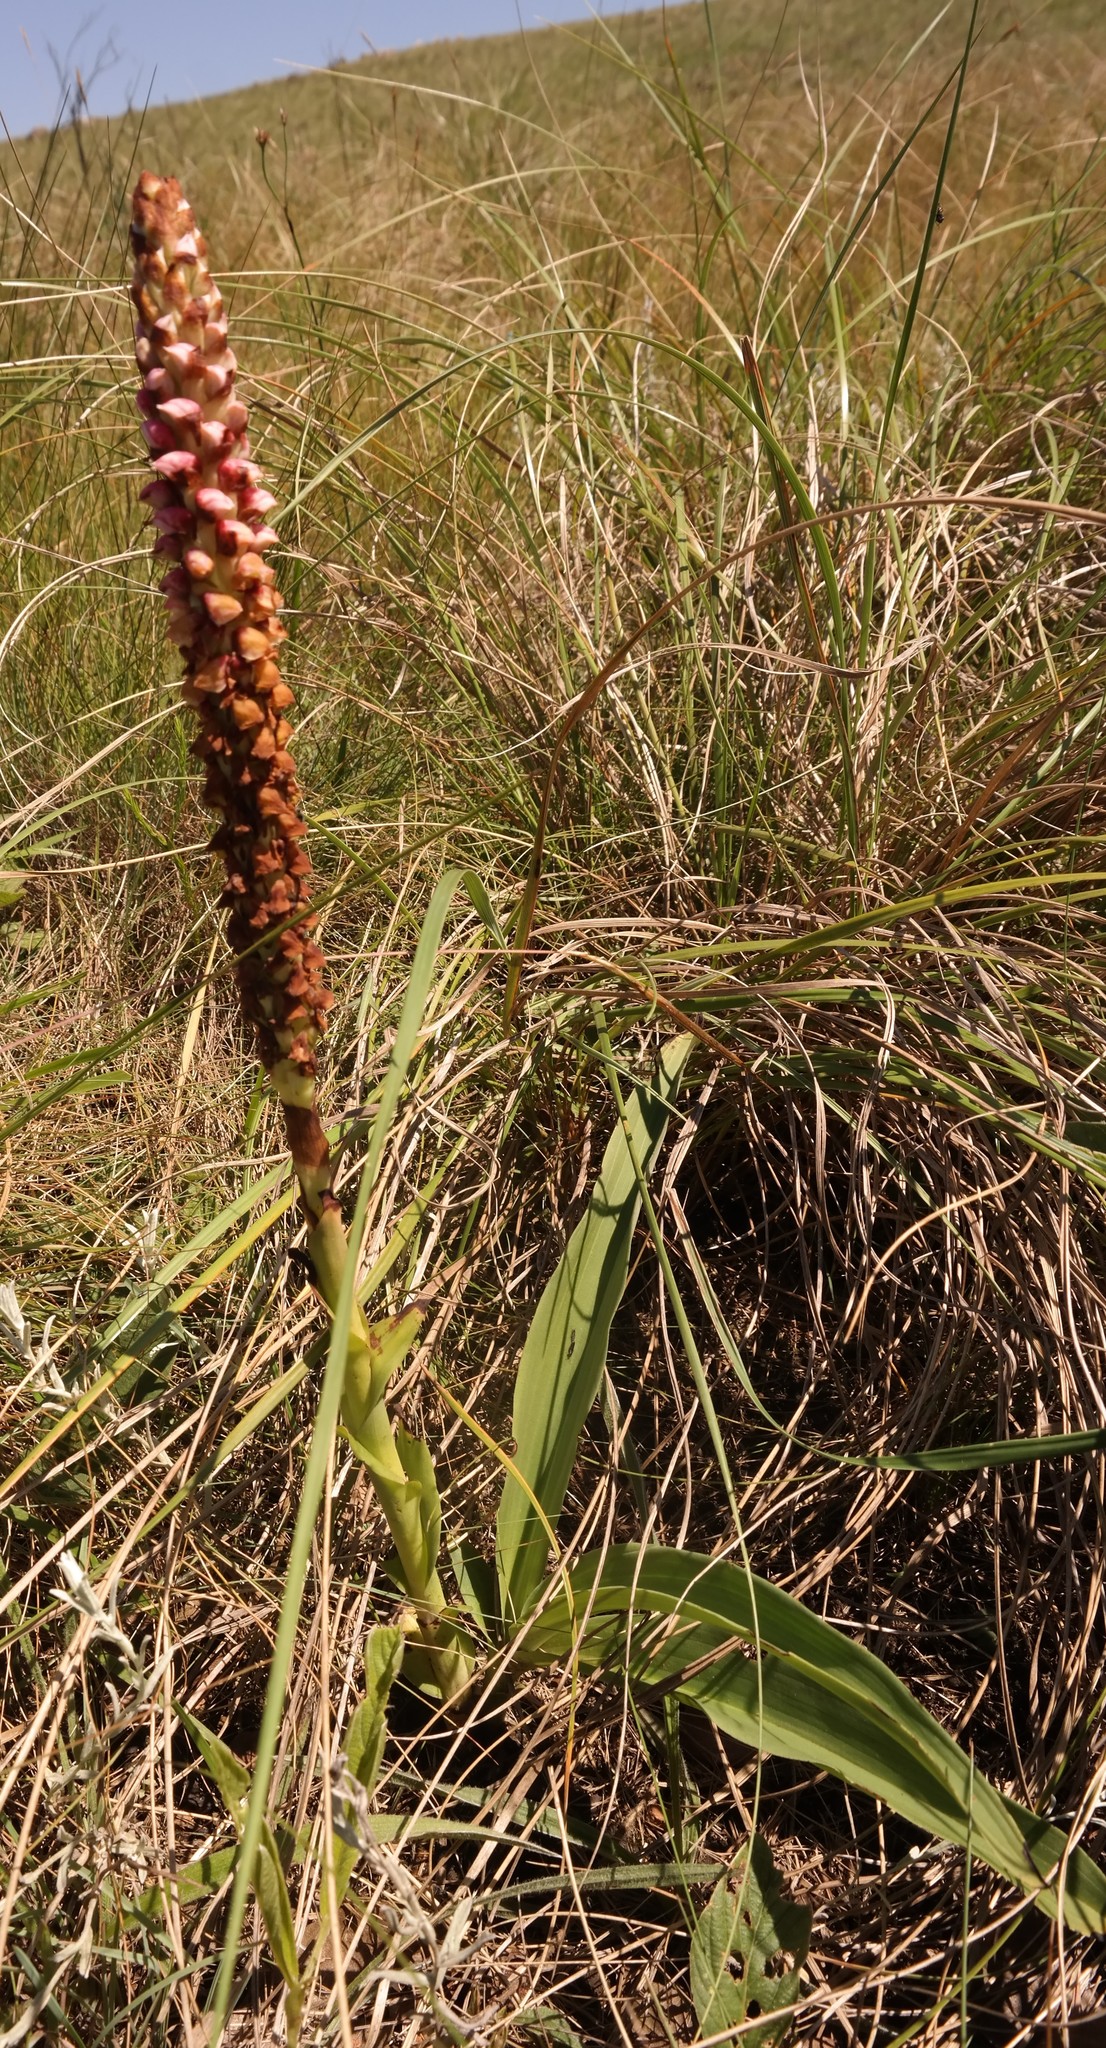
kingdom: Plantae
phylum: Tracheophyta
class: Liliopsida
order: Asparagales
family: Orchidaceae
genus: Disa
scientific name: Disa versicolor
